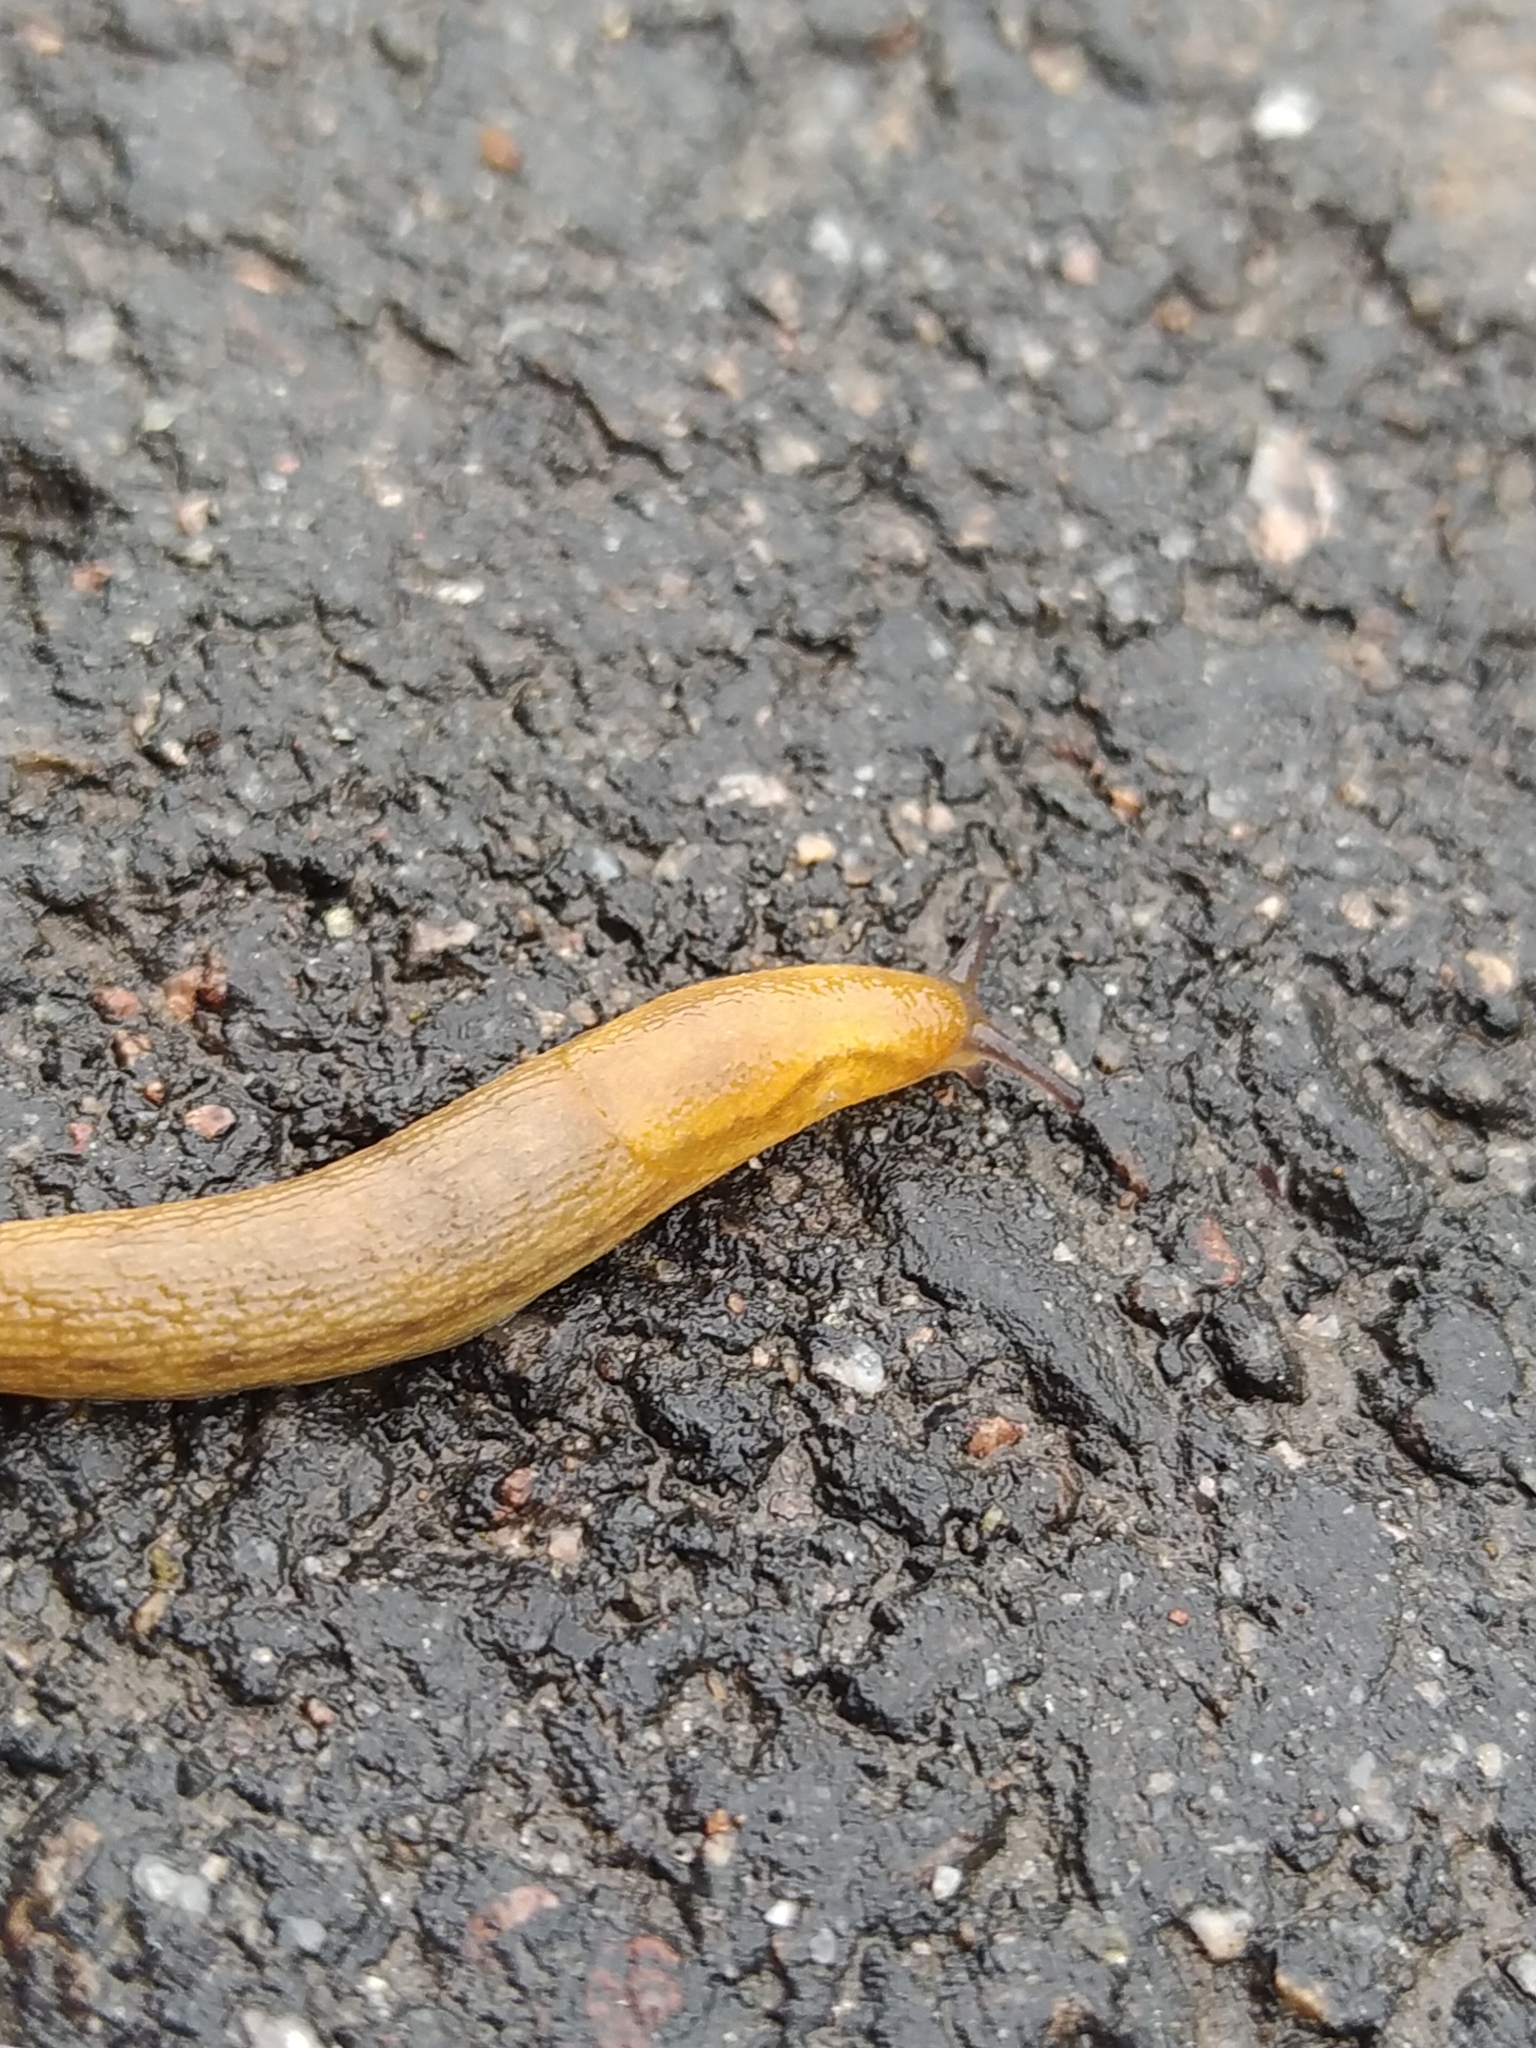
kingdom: Animalia
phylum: Mollusca
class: Gastropoda
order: Stylommatophora
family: Arionidae
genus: Arion
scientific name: Arion fuscus
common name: Northern dusky slug
